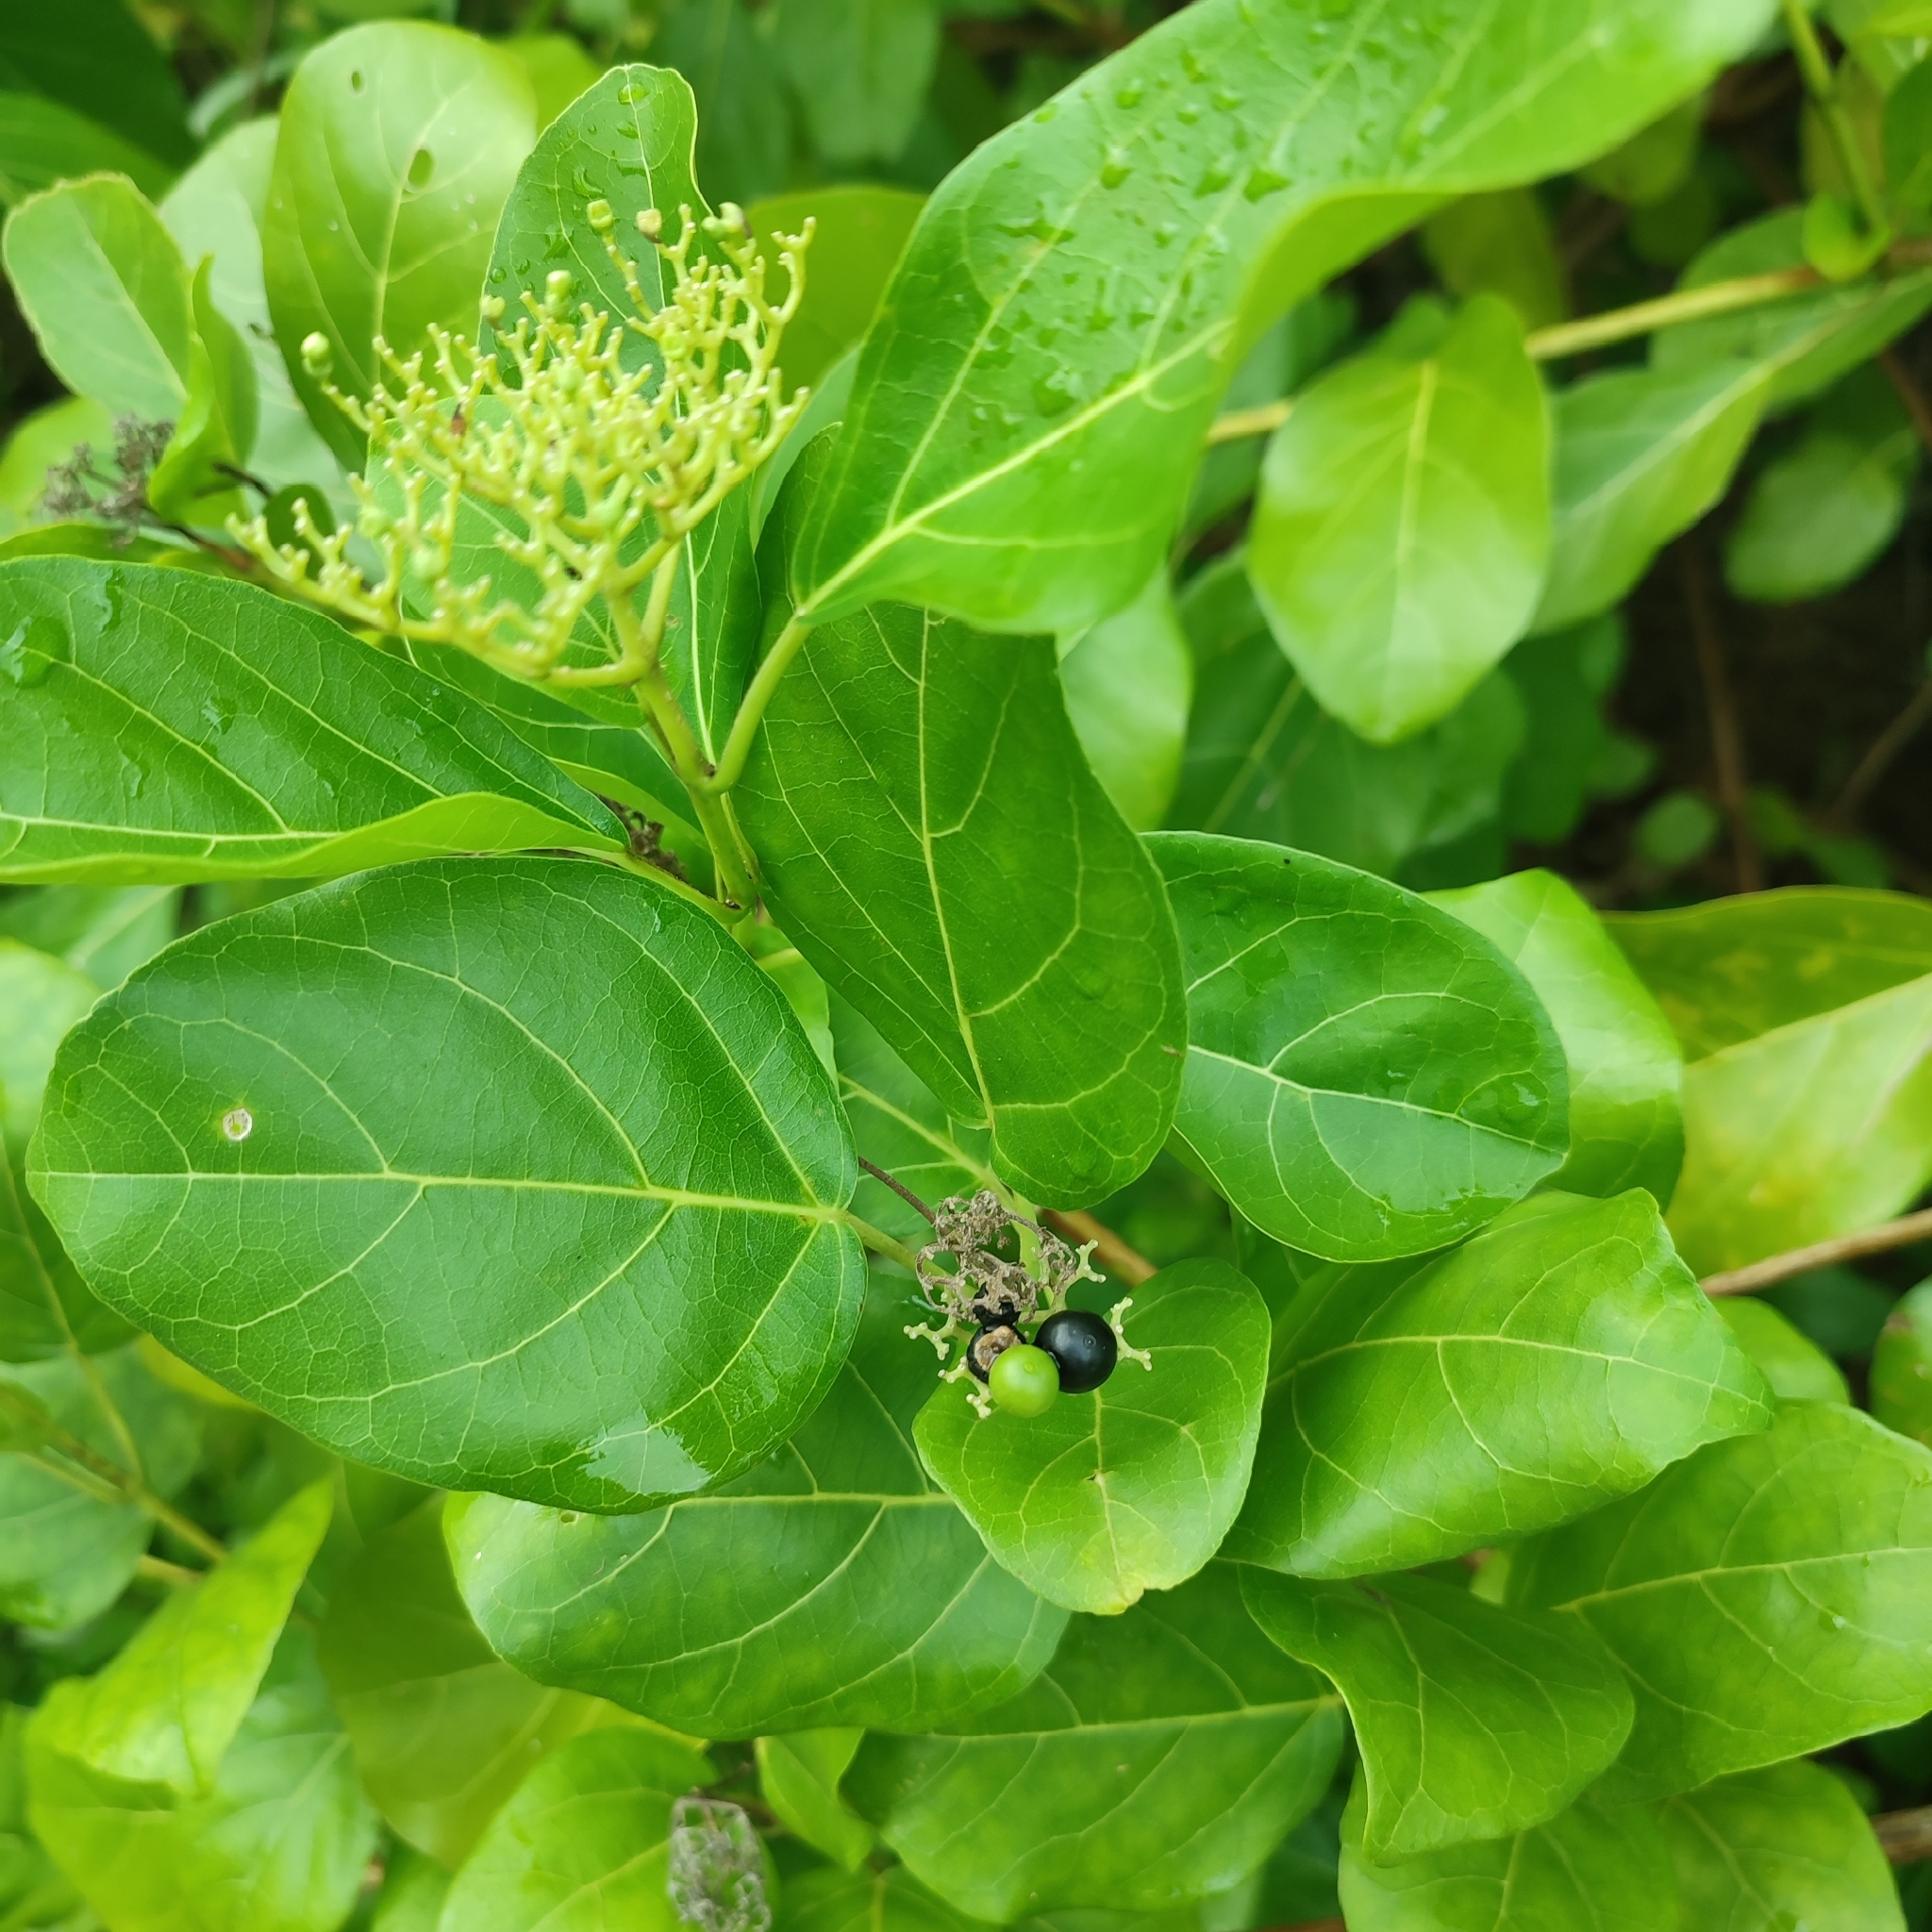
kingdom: Plantae
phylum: Tracheophyta
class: Magnoliopsida
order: Lamiales
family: Lamiaceae
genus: Premna
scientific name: Premna serratifolia
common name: Bastard guelder
